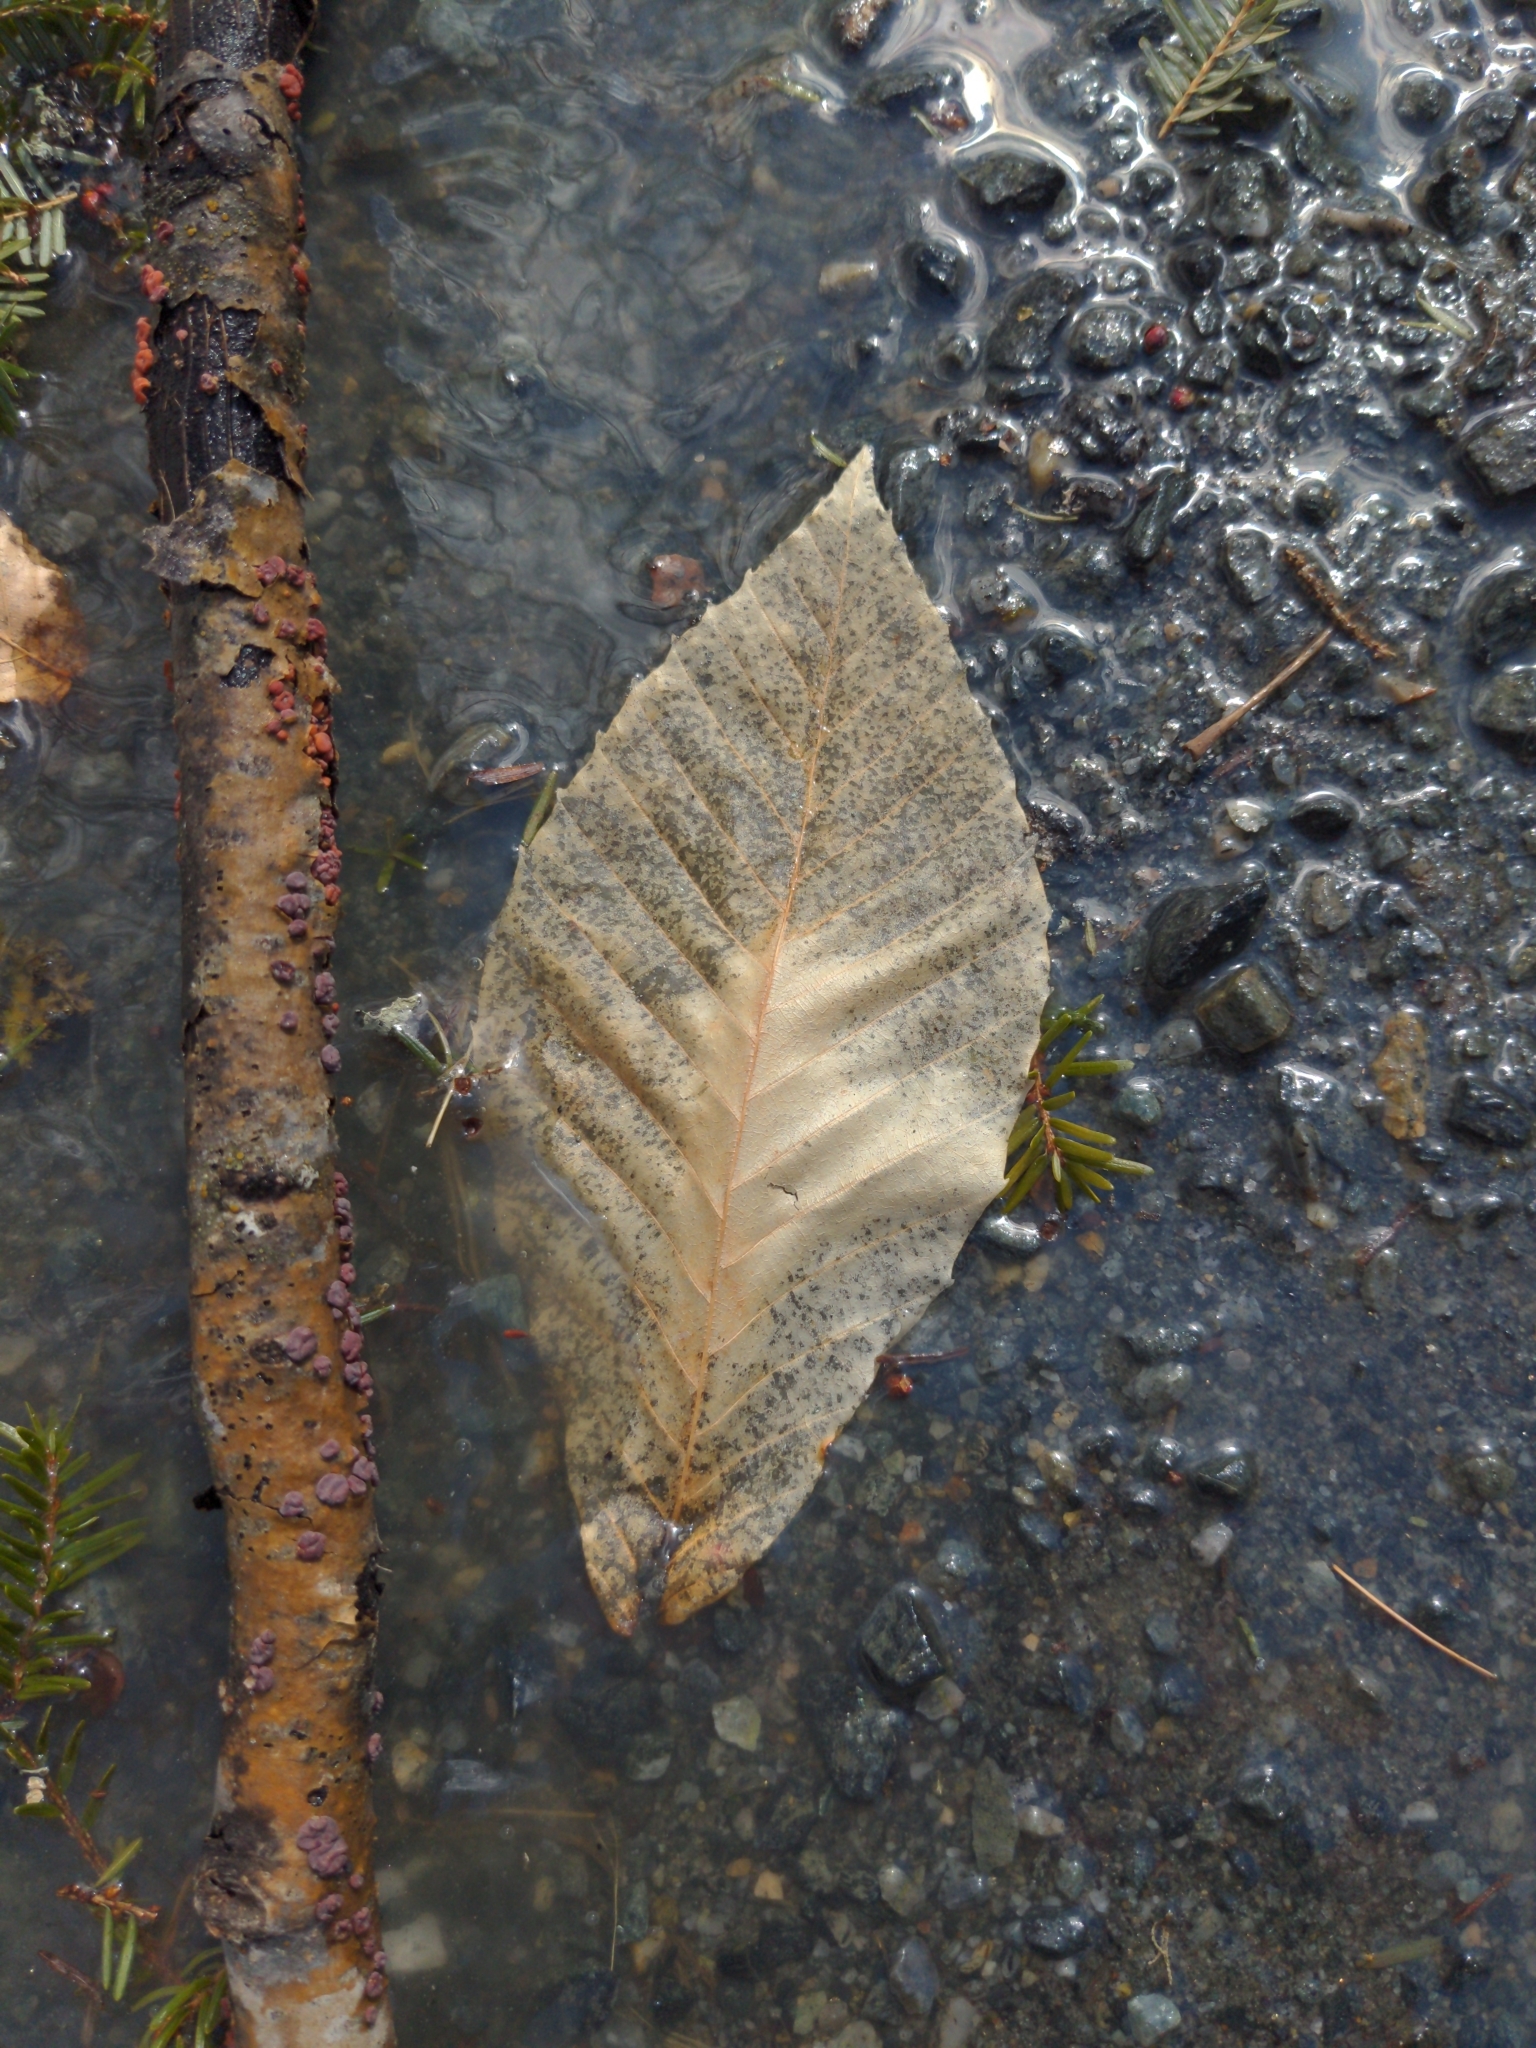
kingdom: Plantae
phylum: Tracheophyta
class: Magnoliopsida
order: Fagales
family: Fagaceae
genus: Fagus
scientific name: Fagus grandifolia
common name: American beech
